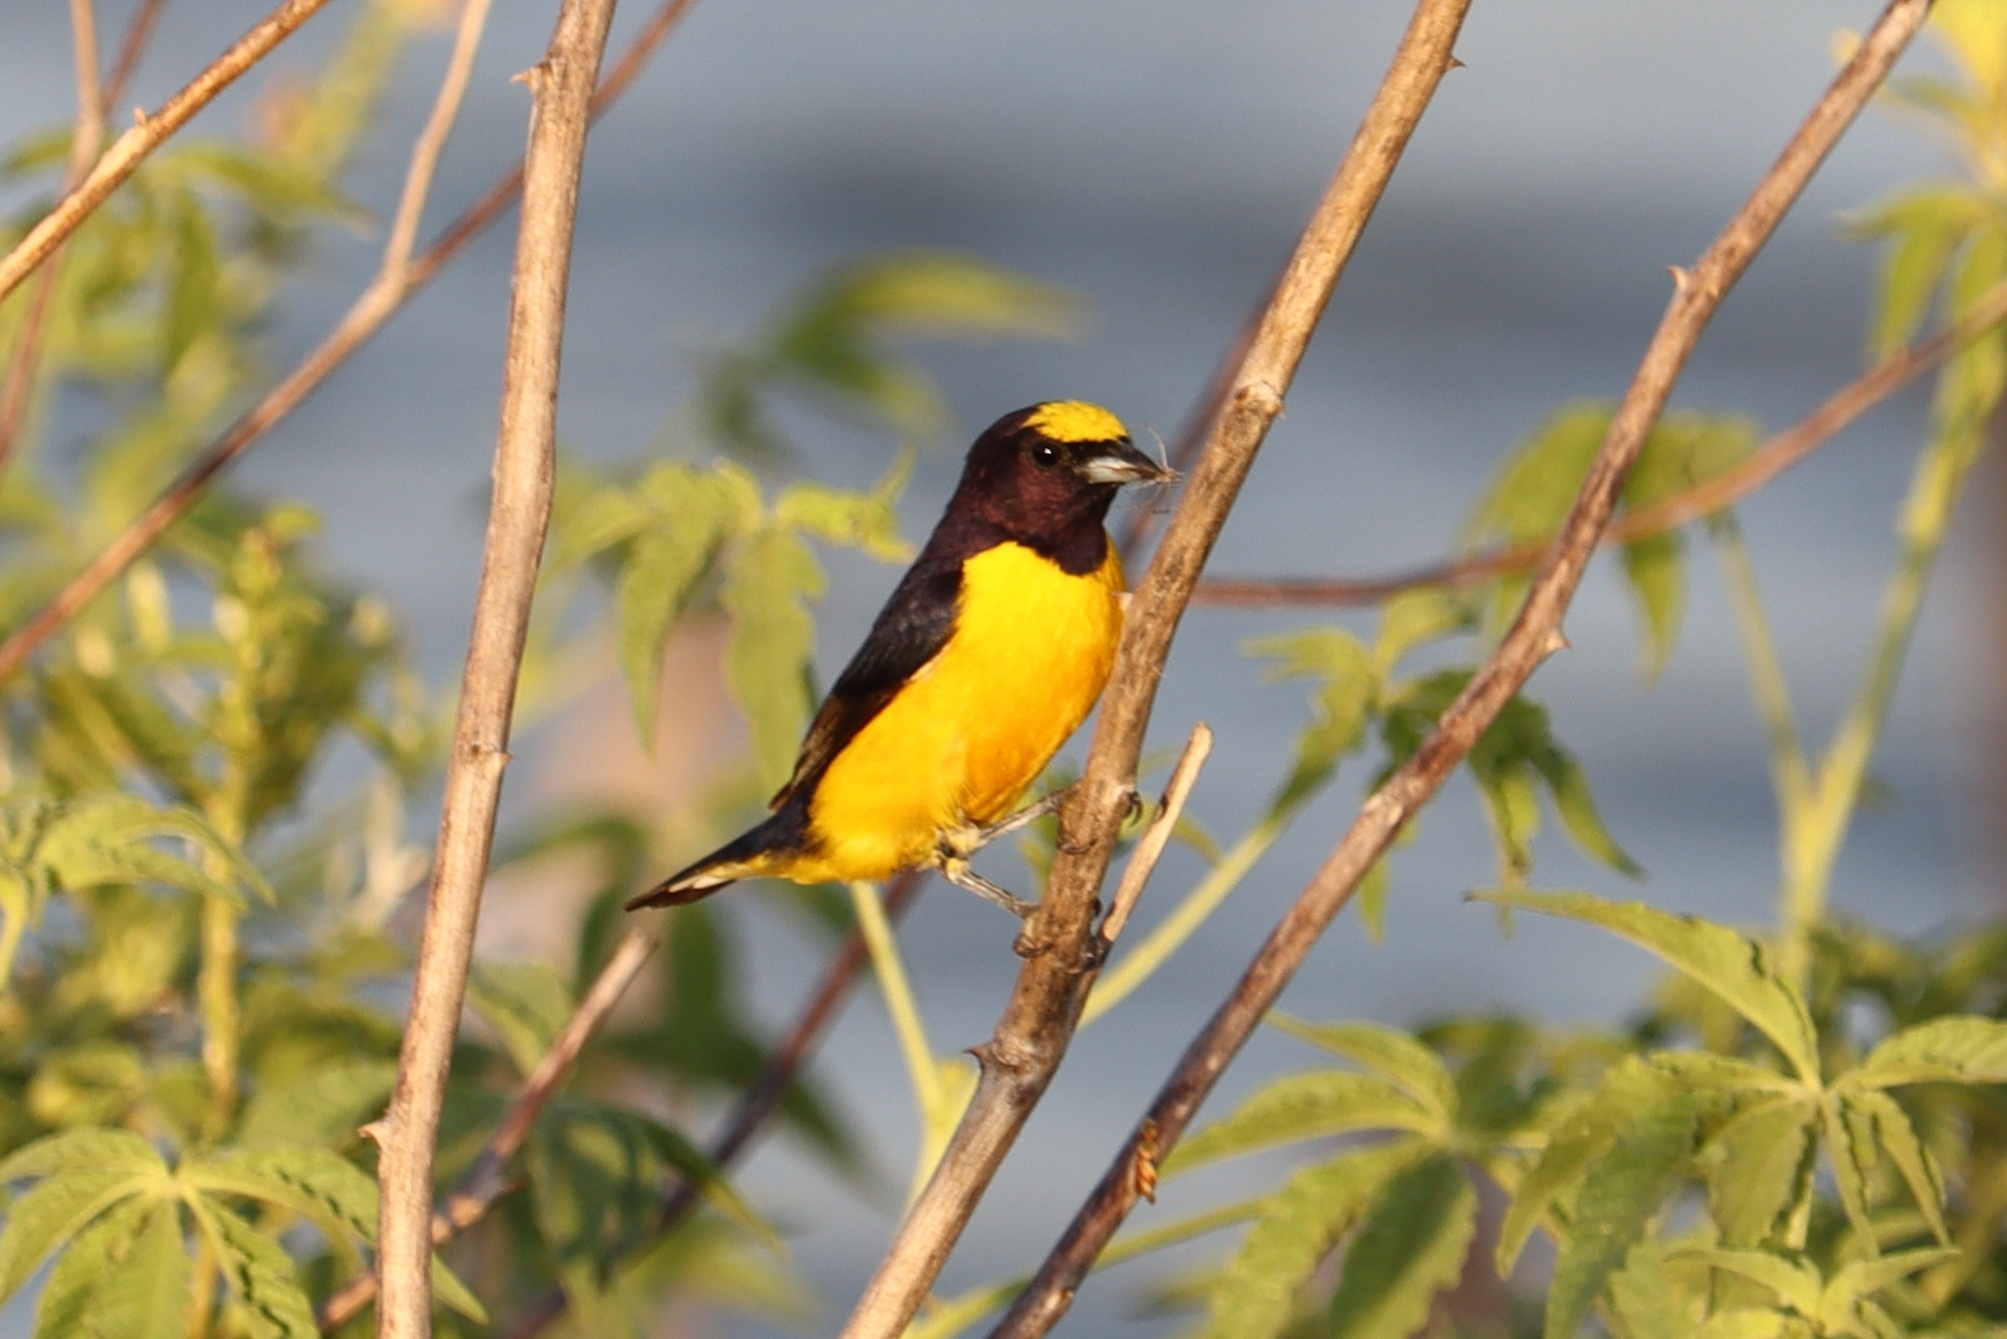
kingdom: Animalia
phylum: Chordata
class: Aves
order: Passeriformes
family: Fringillidae
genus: Euphonia
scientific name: Euphonia chlorotica
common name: Purple-throated euphonia
